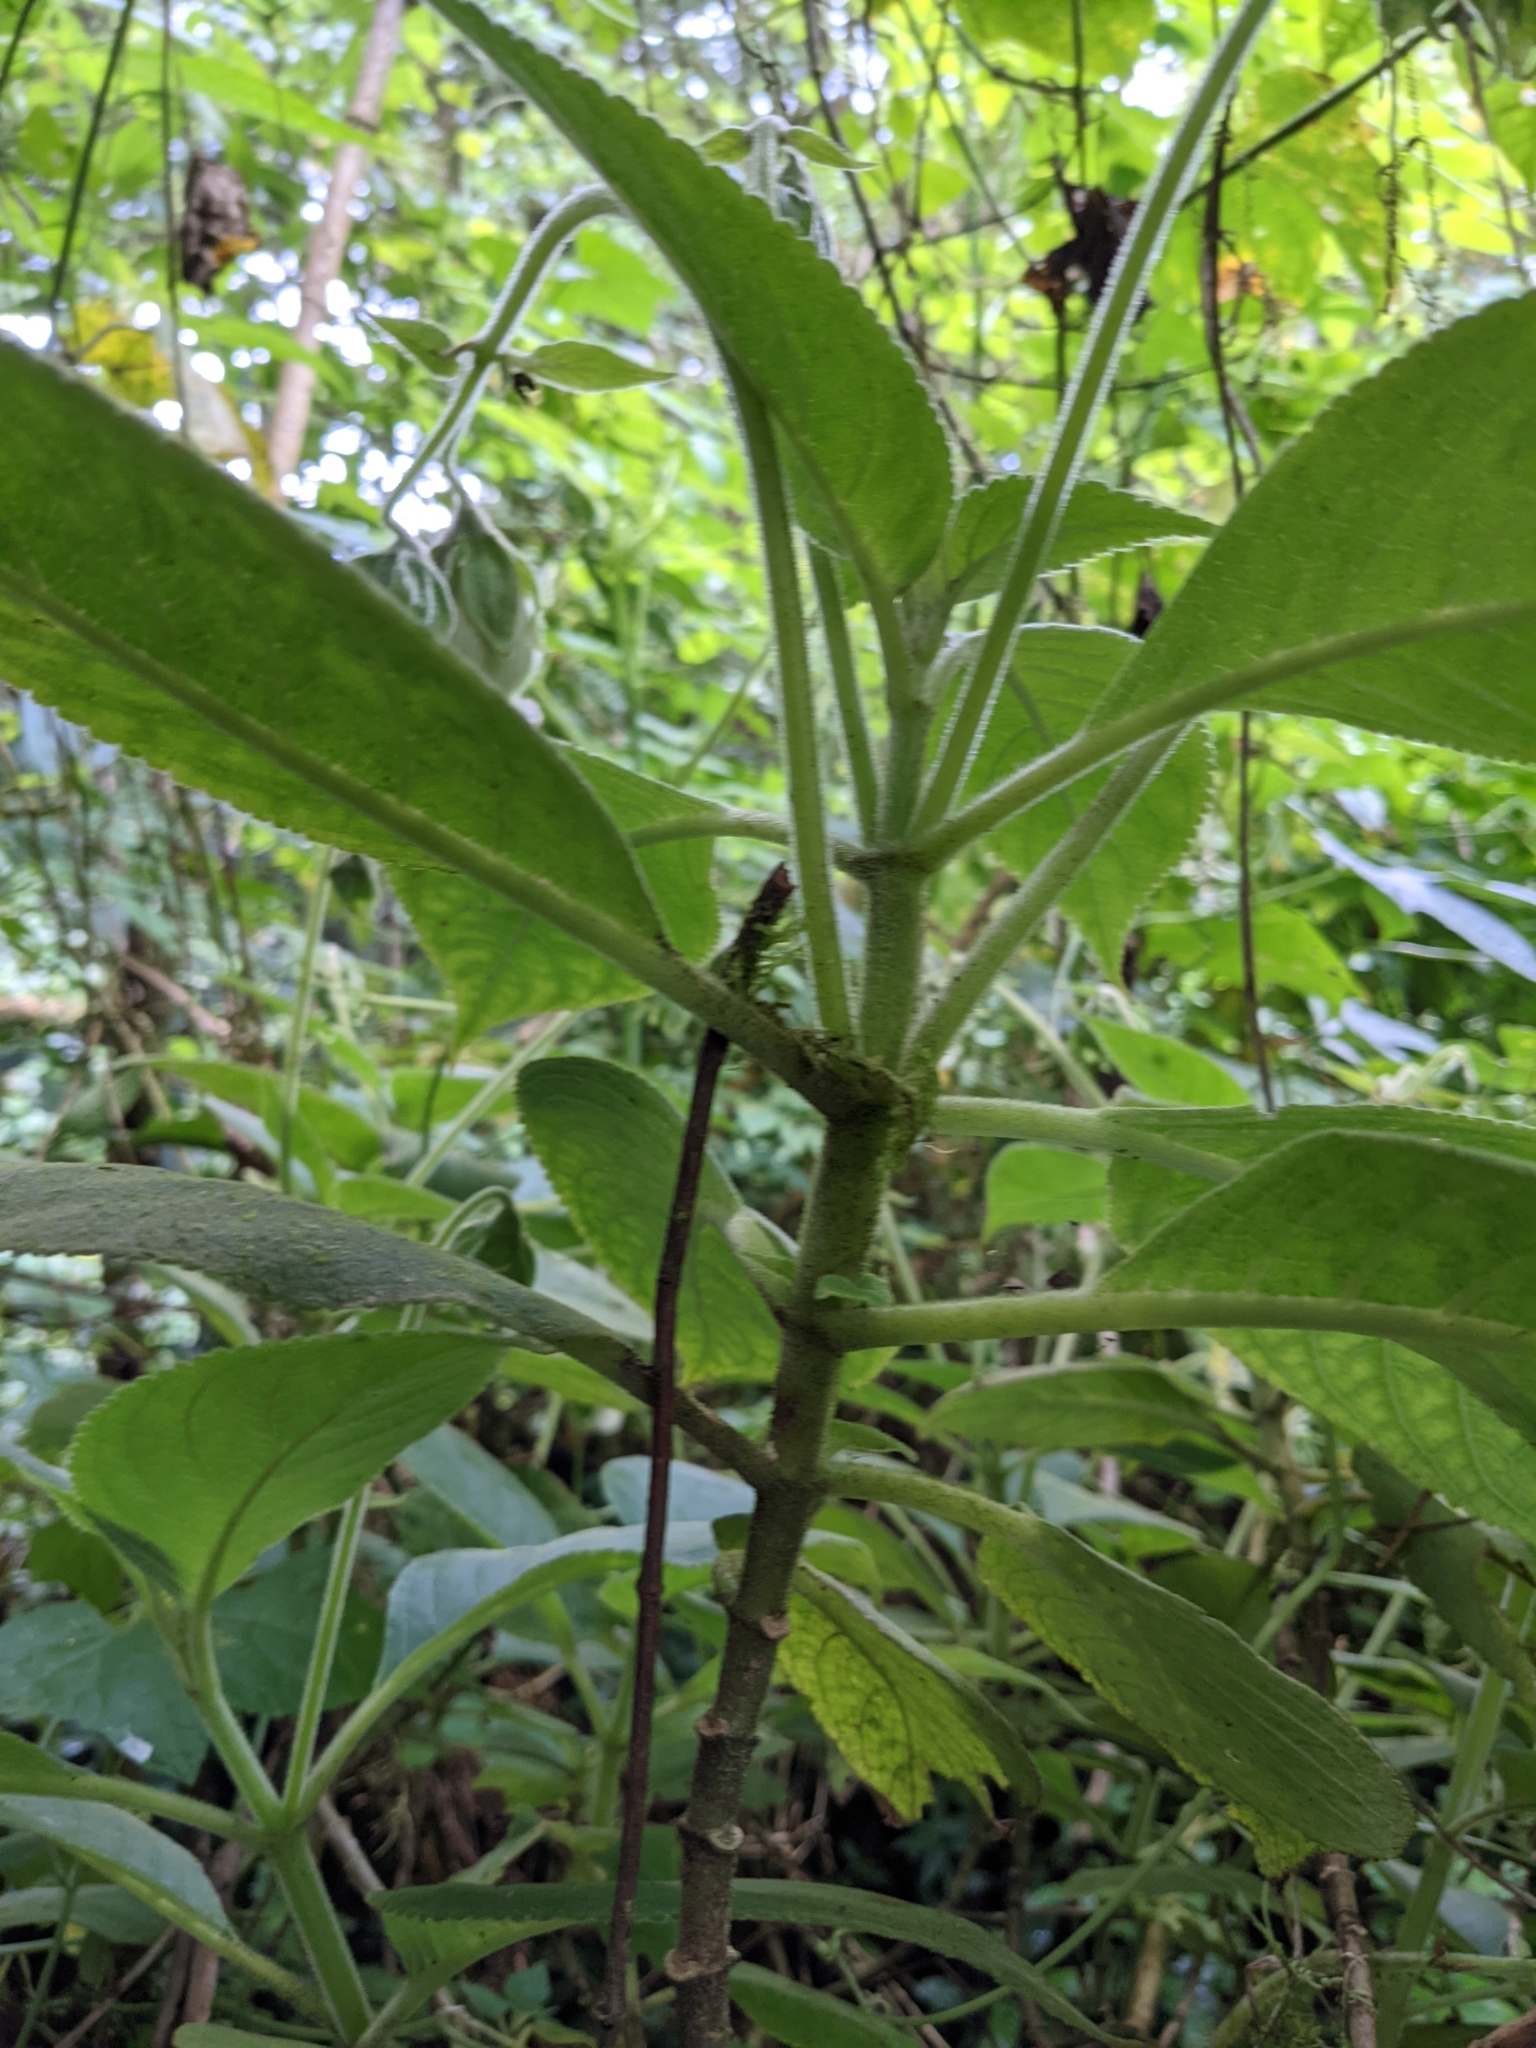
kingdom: Plantae
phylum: Tracheophyta
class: Magnoliopsida
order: Lamiales
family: Gesneriaceae
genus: Kohleria
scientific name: Kohleria tigridia
